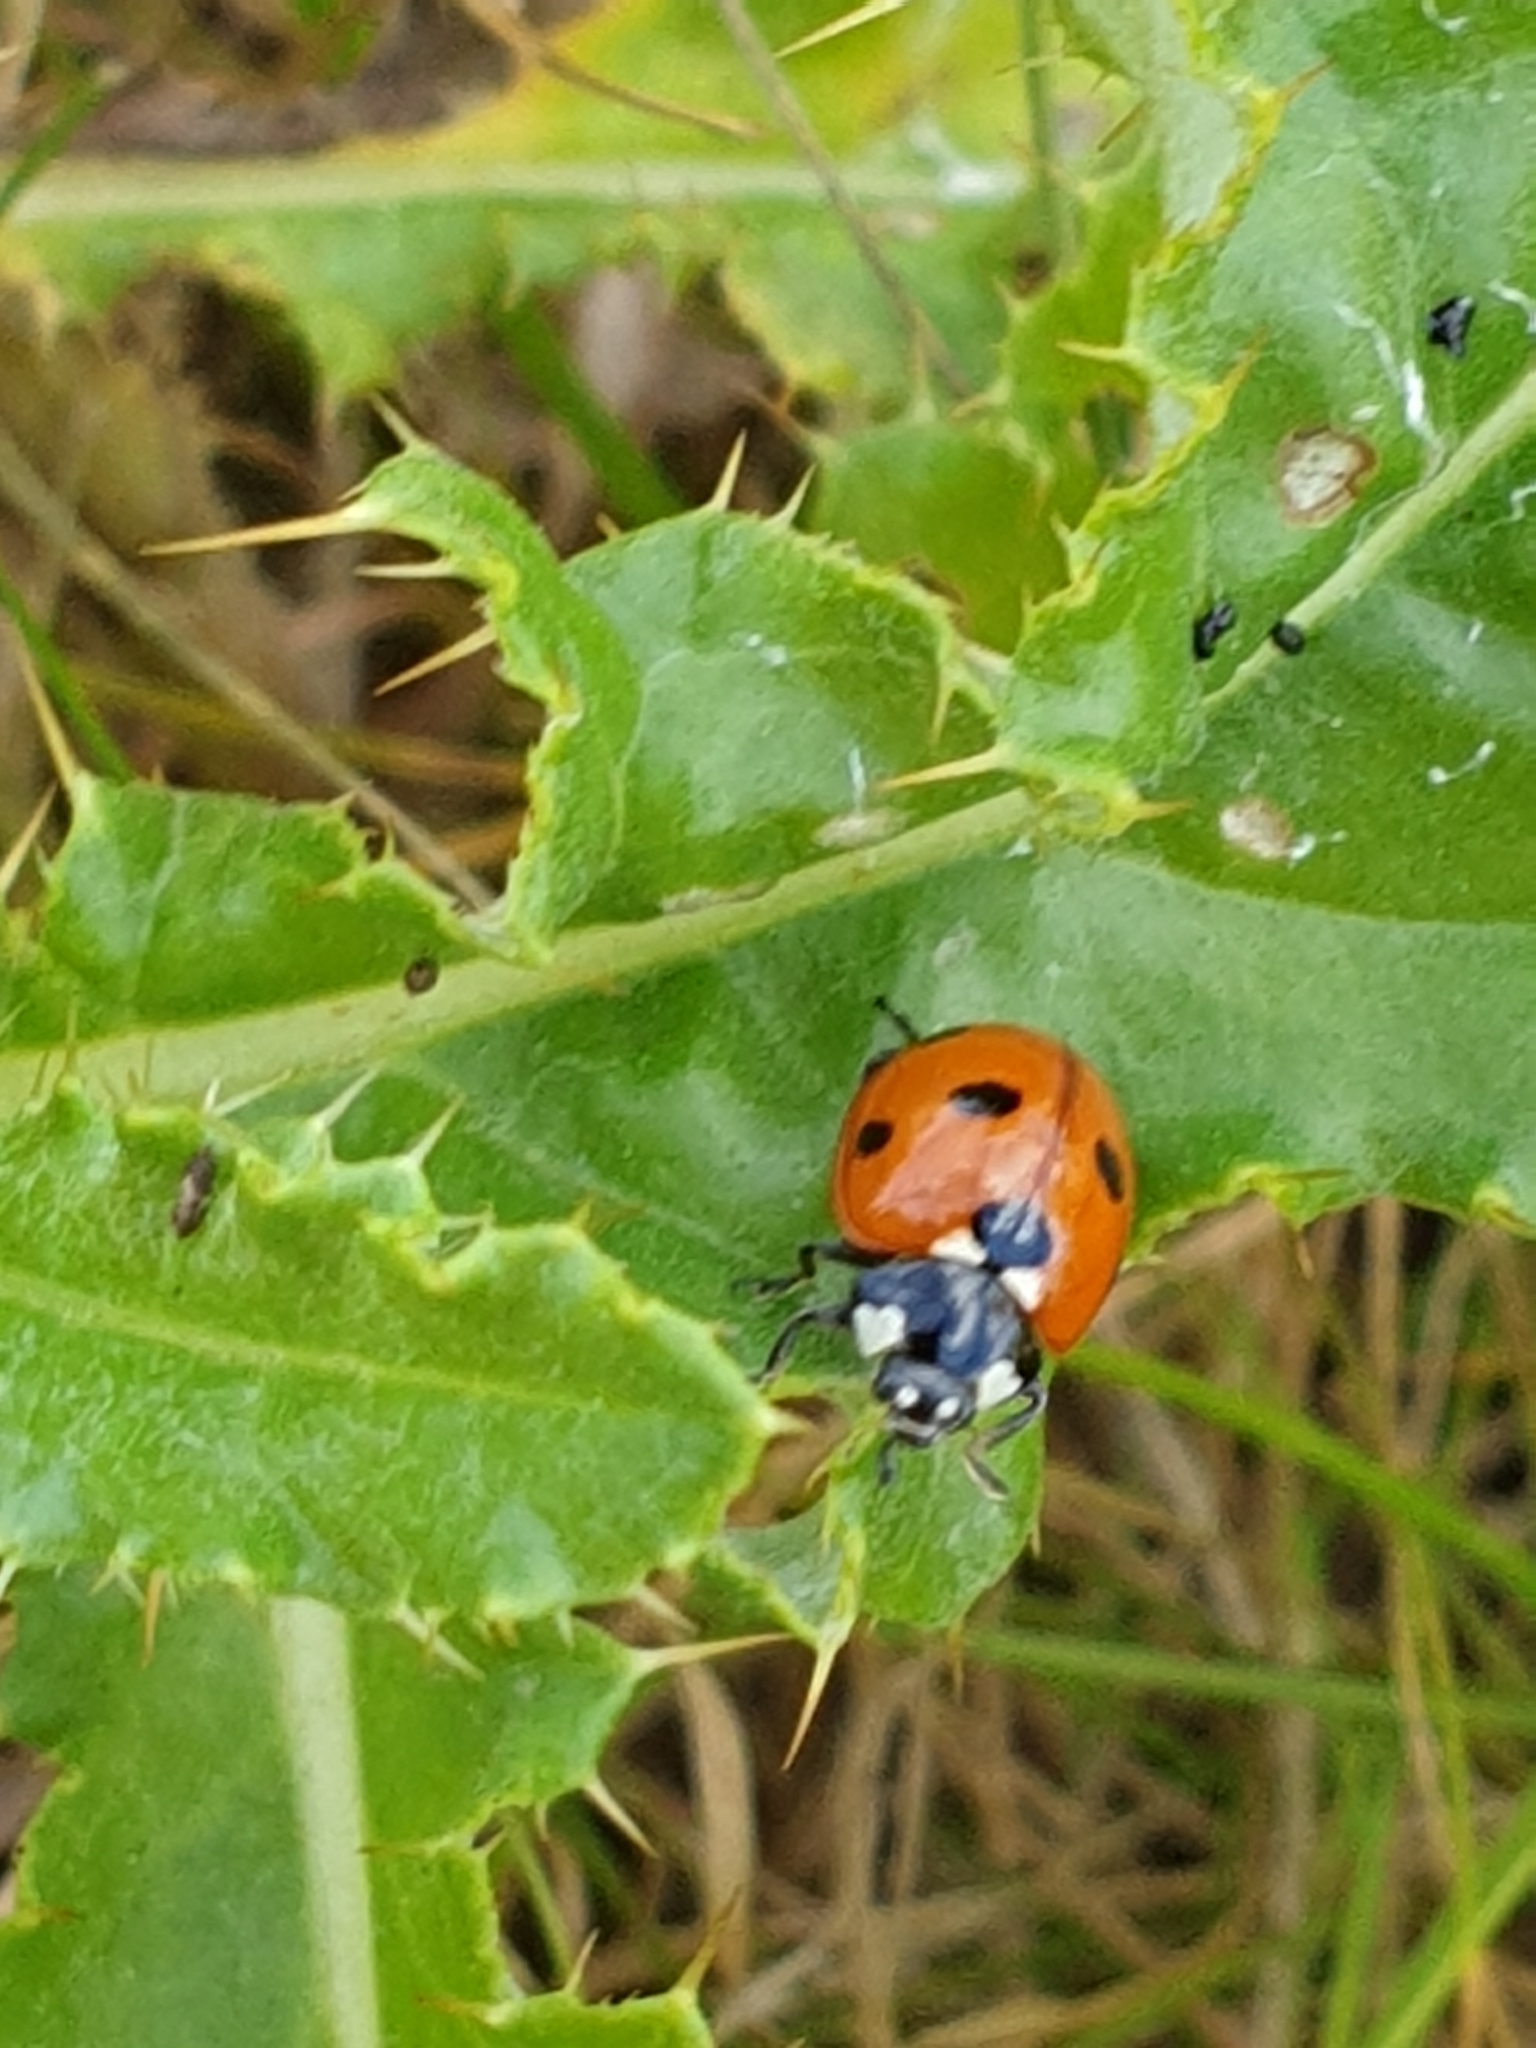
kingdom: Animalia
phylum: Arthropoda
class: Insecta
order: Coleoptera
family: Coccinellidae
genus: Coccinella
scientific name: Coccinella septempunctata
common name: Sevenspotted lady beetle
